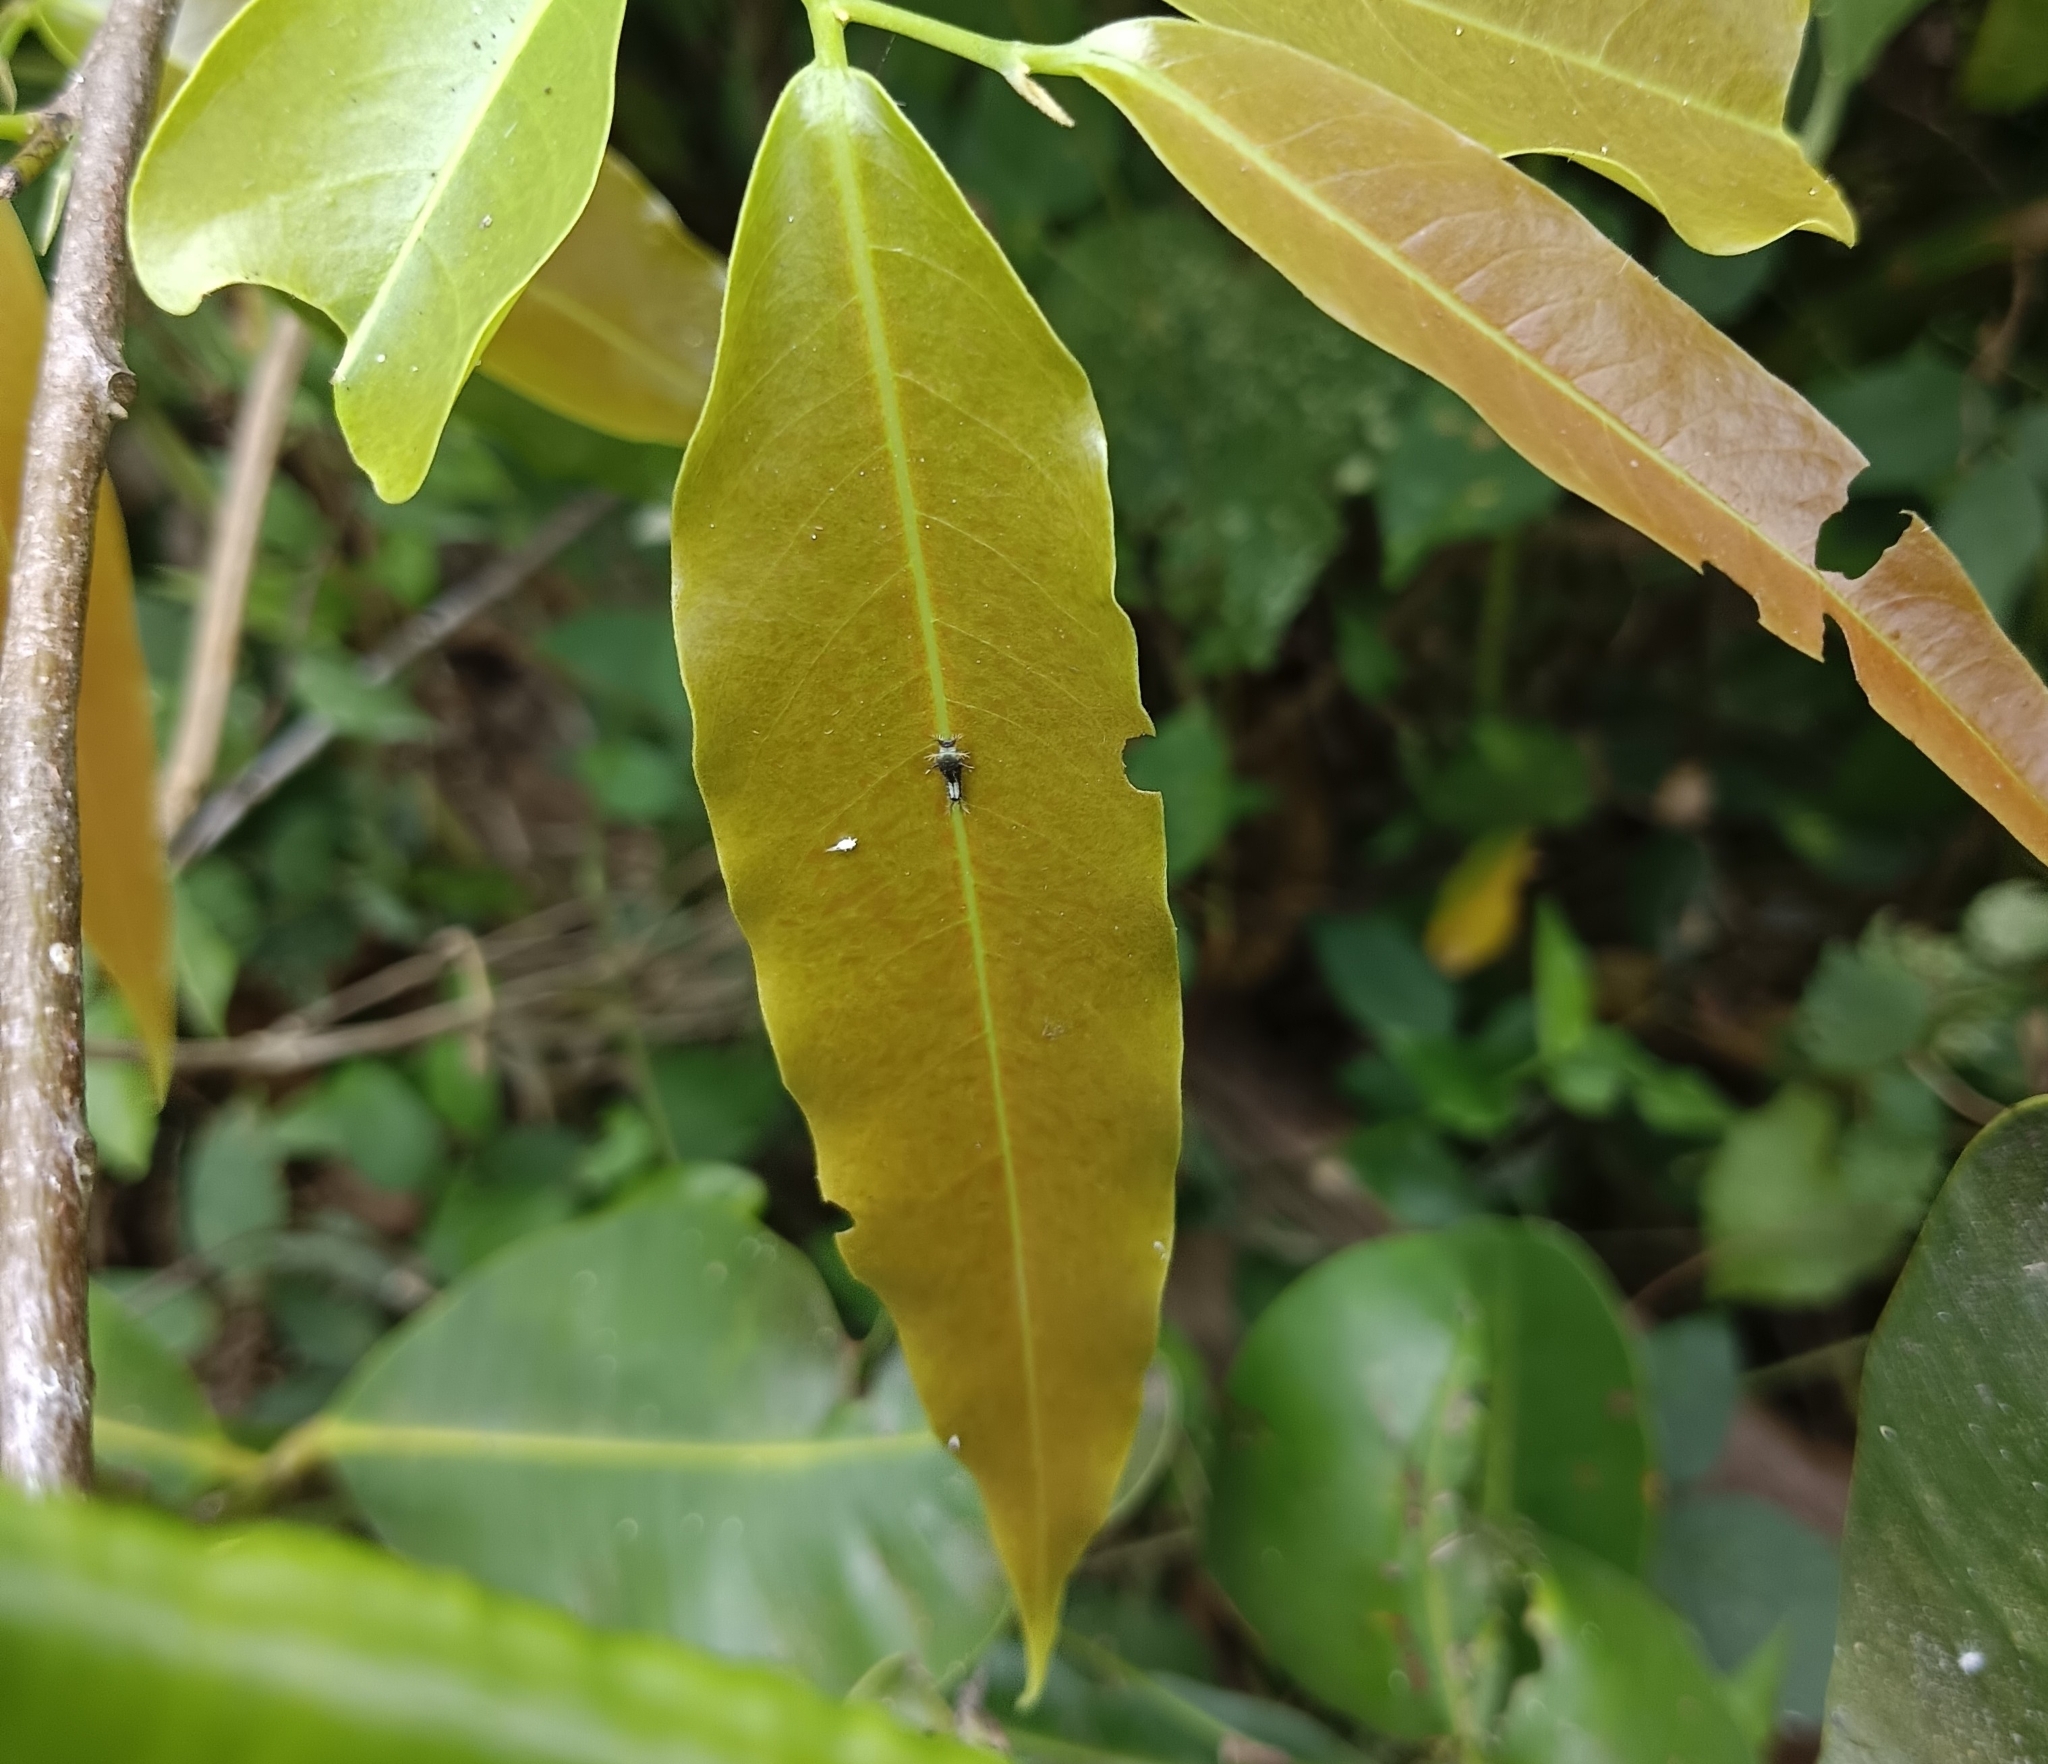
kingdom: Animalia
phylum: Arthropoda
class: Insecta
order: Lepidoptera
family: Papilionidae
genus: Graphium
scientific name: Graphium agamemnon
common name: Tailed jay
